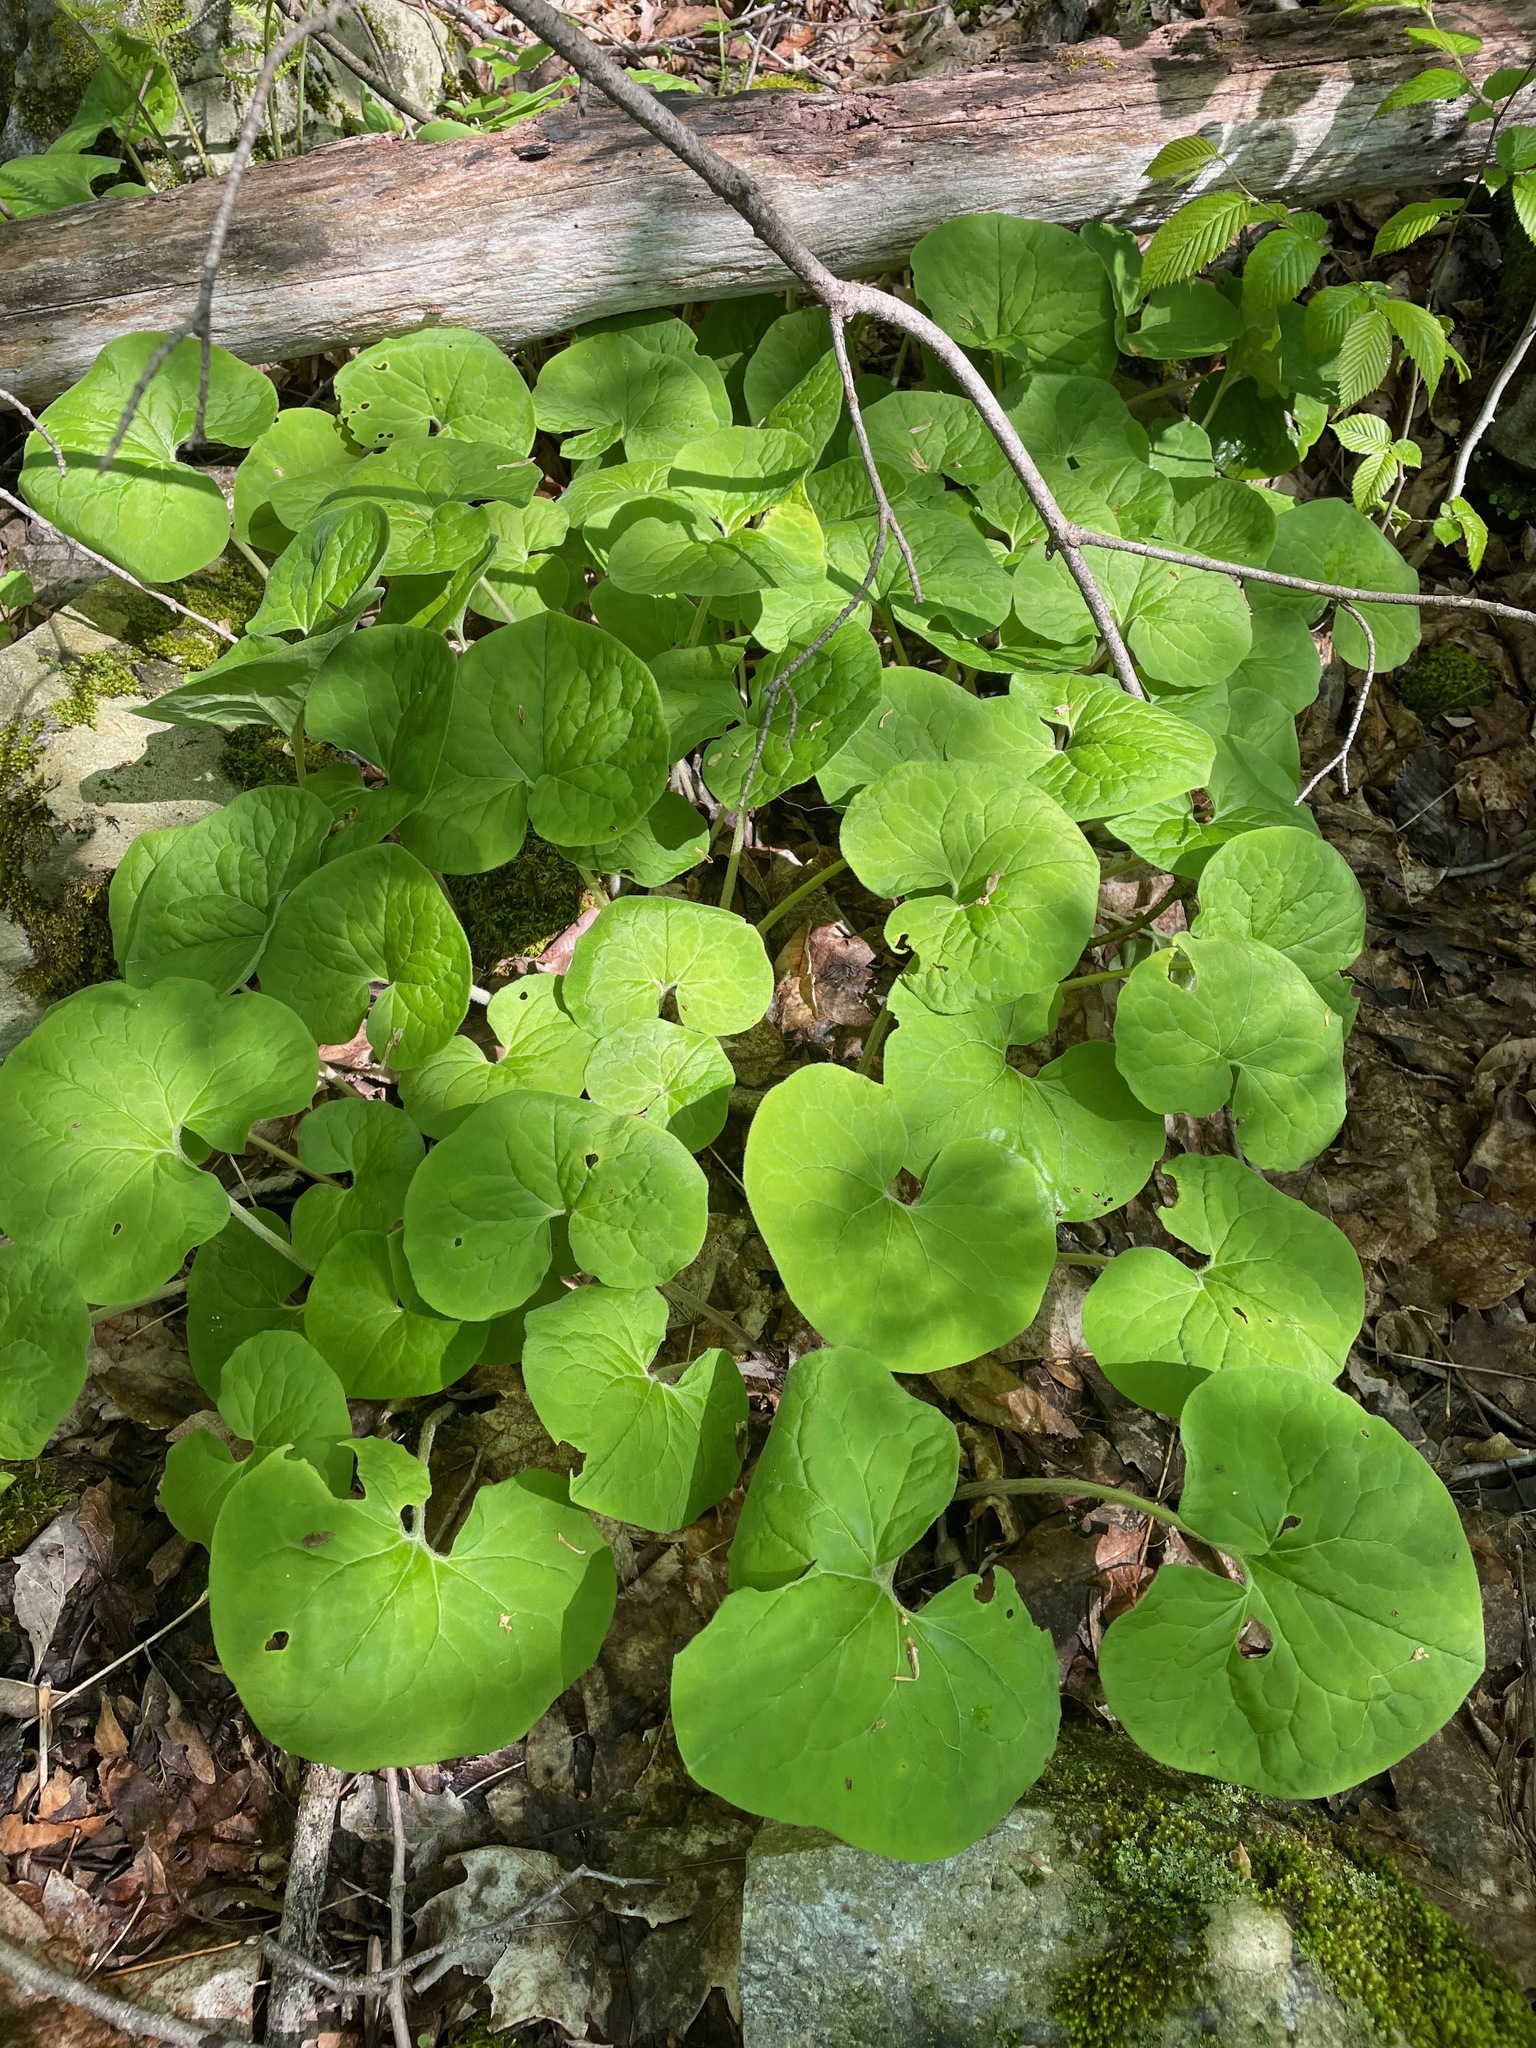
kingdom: Plantae
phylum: Tracheophyta
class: Magnoliopsida
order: Piperales
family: Aristolochiaceae
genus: Asarum
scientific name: Asarum canadense
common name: Wild ginger
